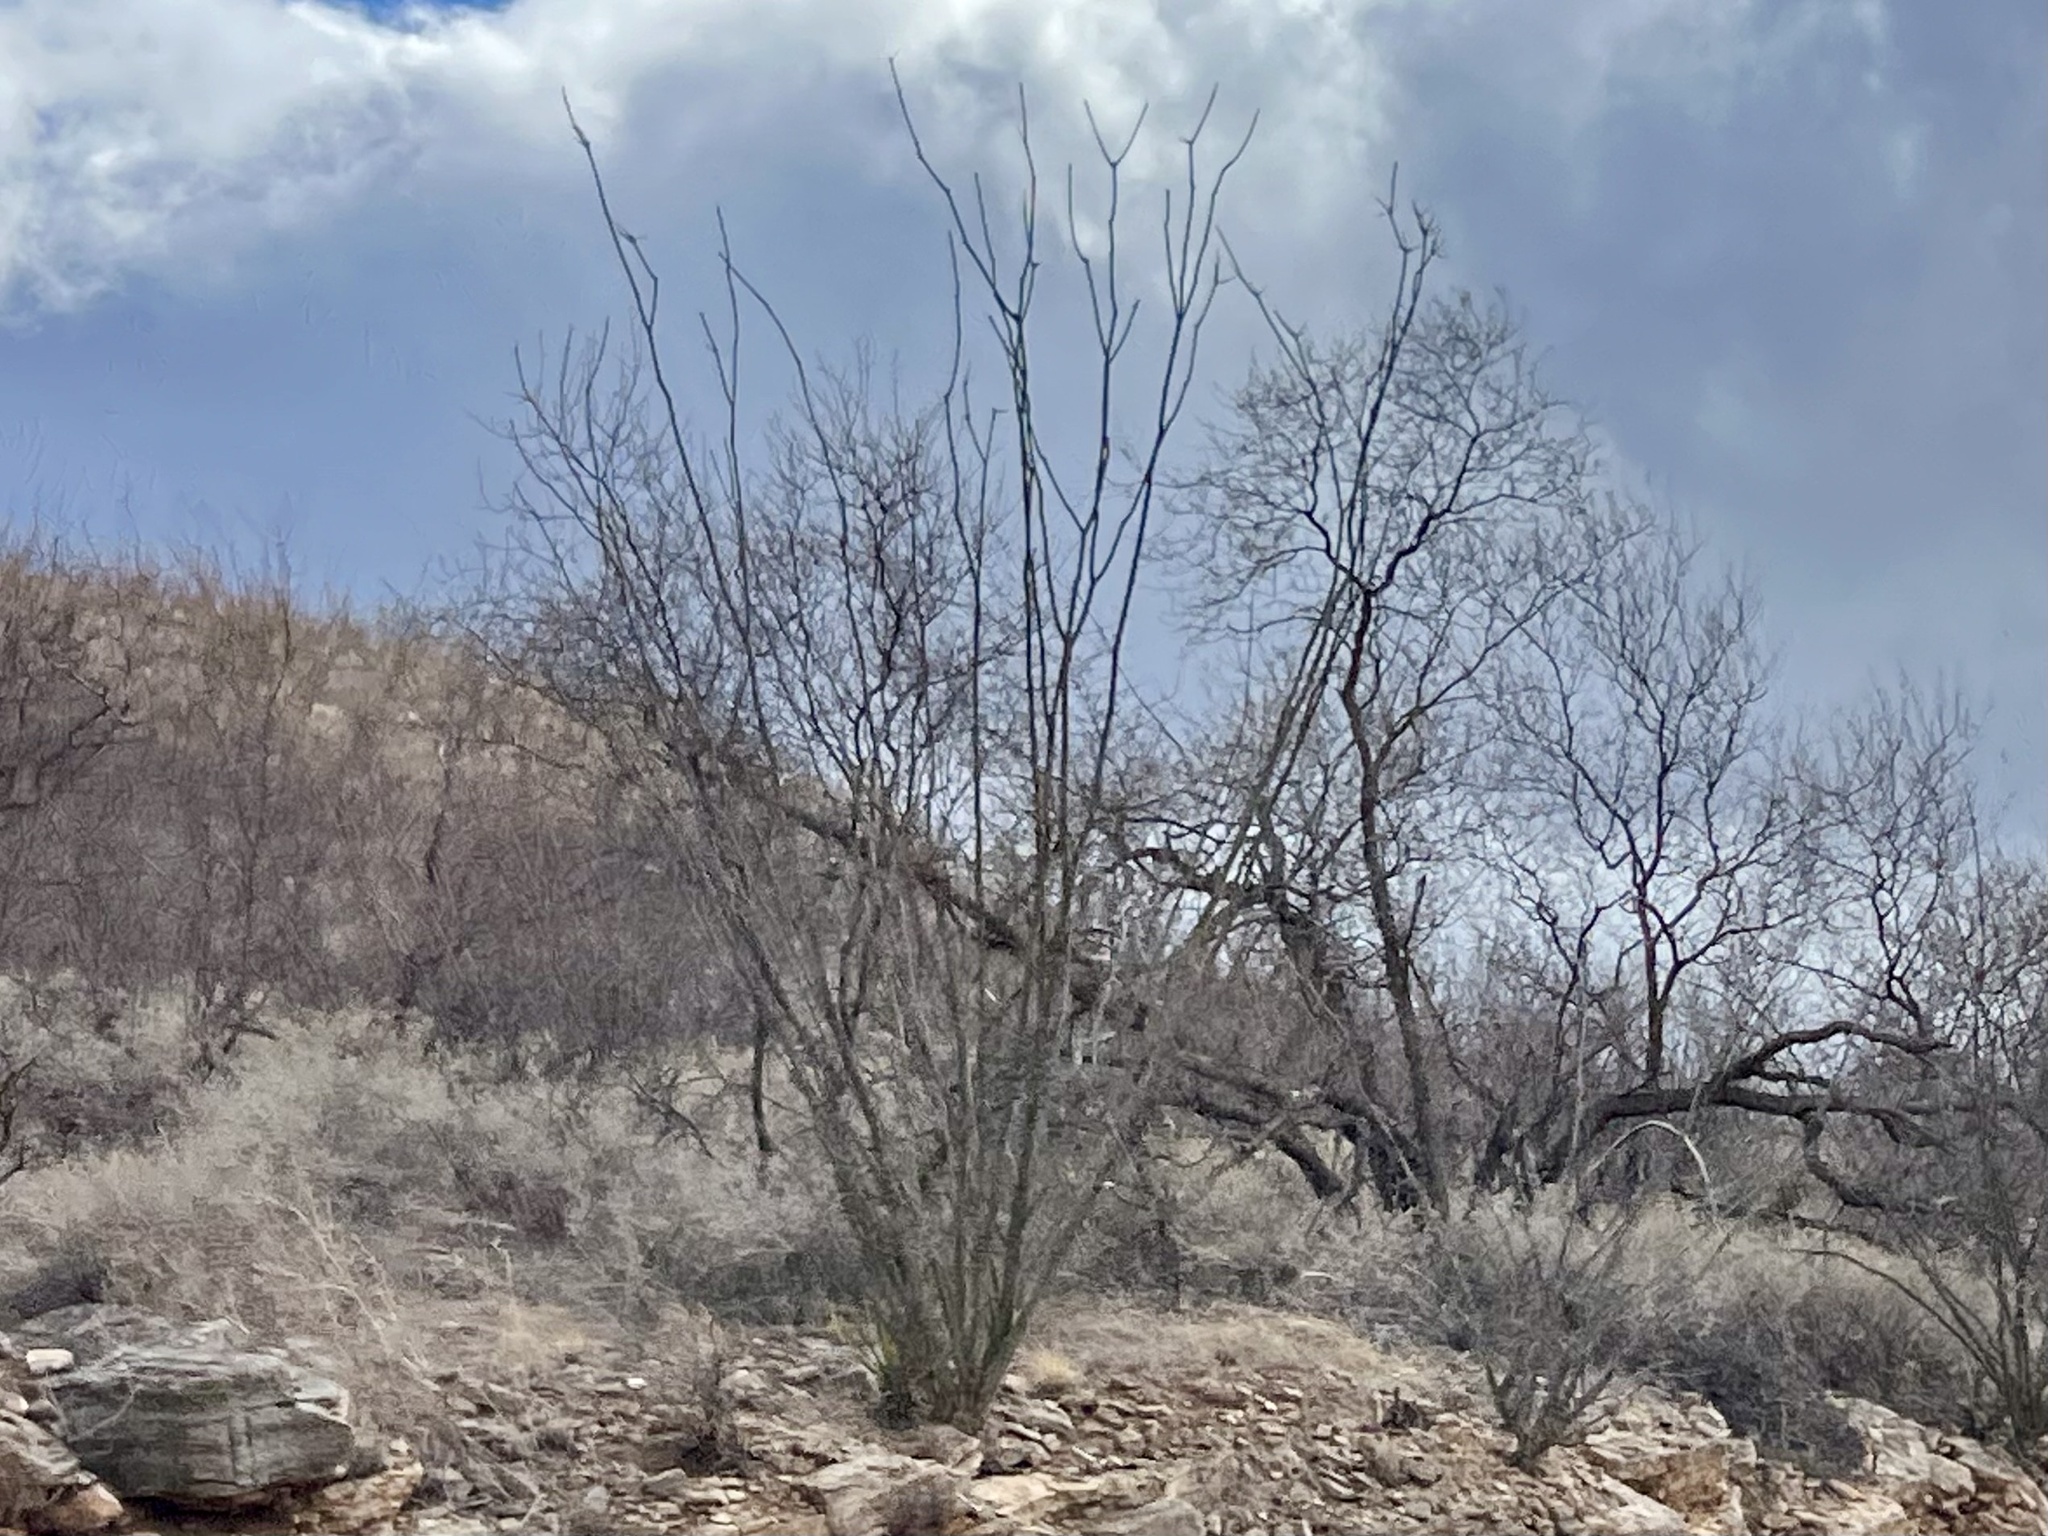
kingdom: Plantae
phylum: Tracheophyta
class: Magnoliopsida
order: Ericales
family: Fouquieriaceae
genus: Fouquieria
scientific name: Fouquieria splendens
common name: Vine-cactus
